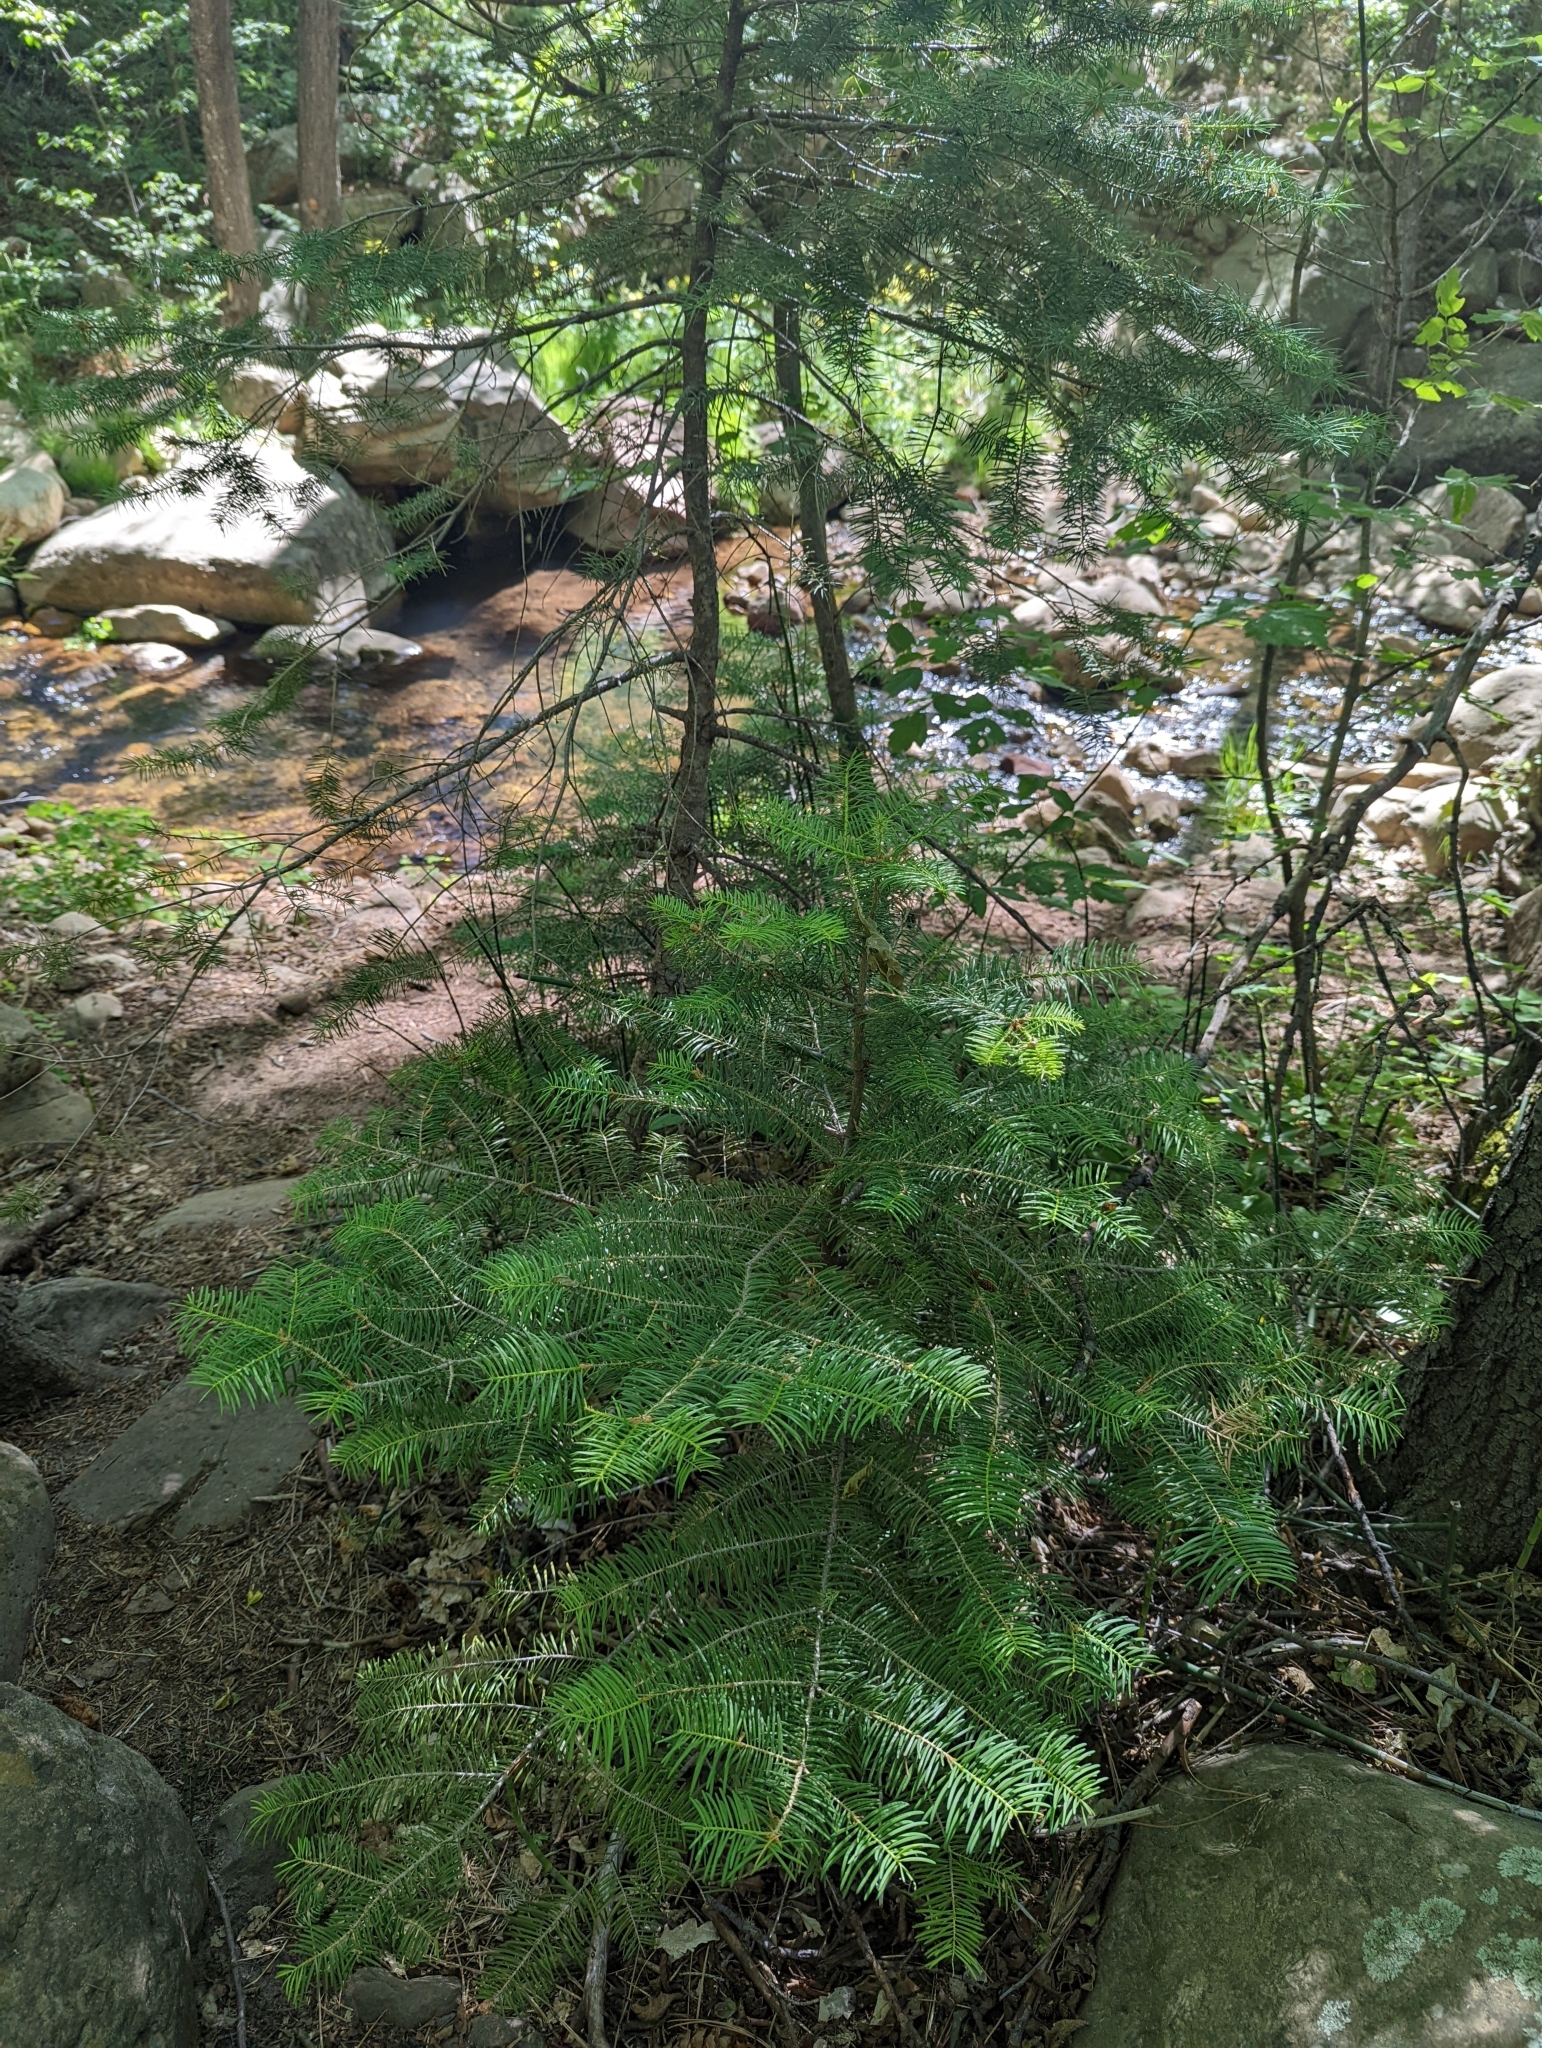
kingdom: Plantae
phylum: Tracheophyta
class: Pinopsida
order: Pinales
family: Pinaceae
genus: Abies
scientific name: Abies concolor
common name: Colorado fir
